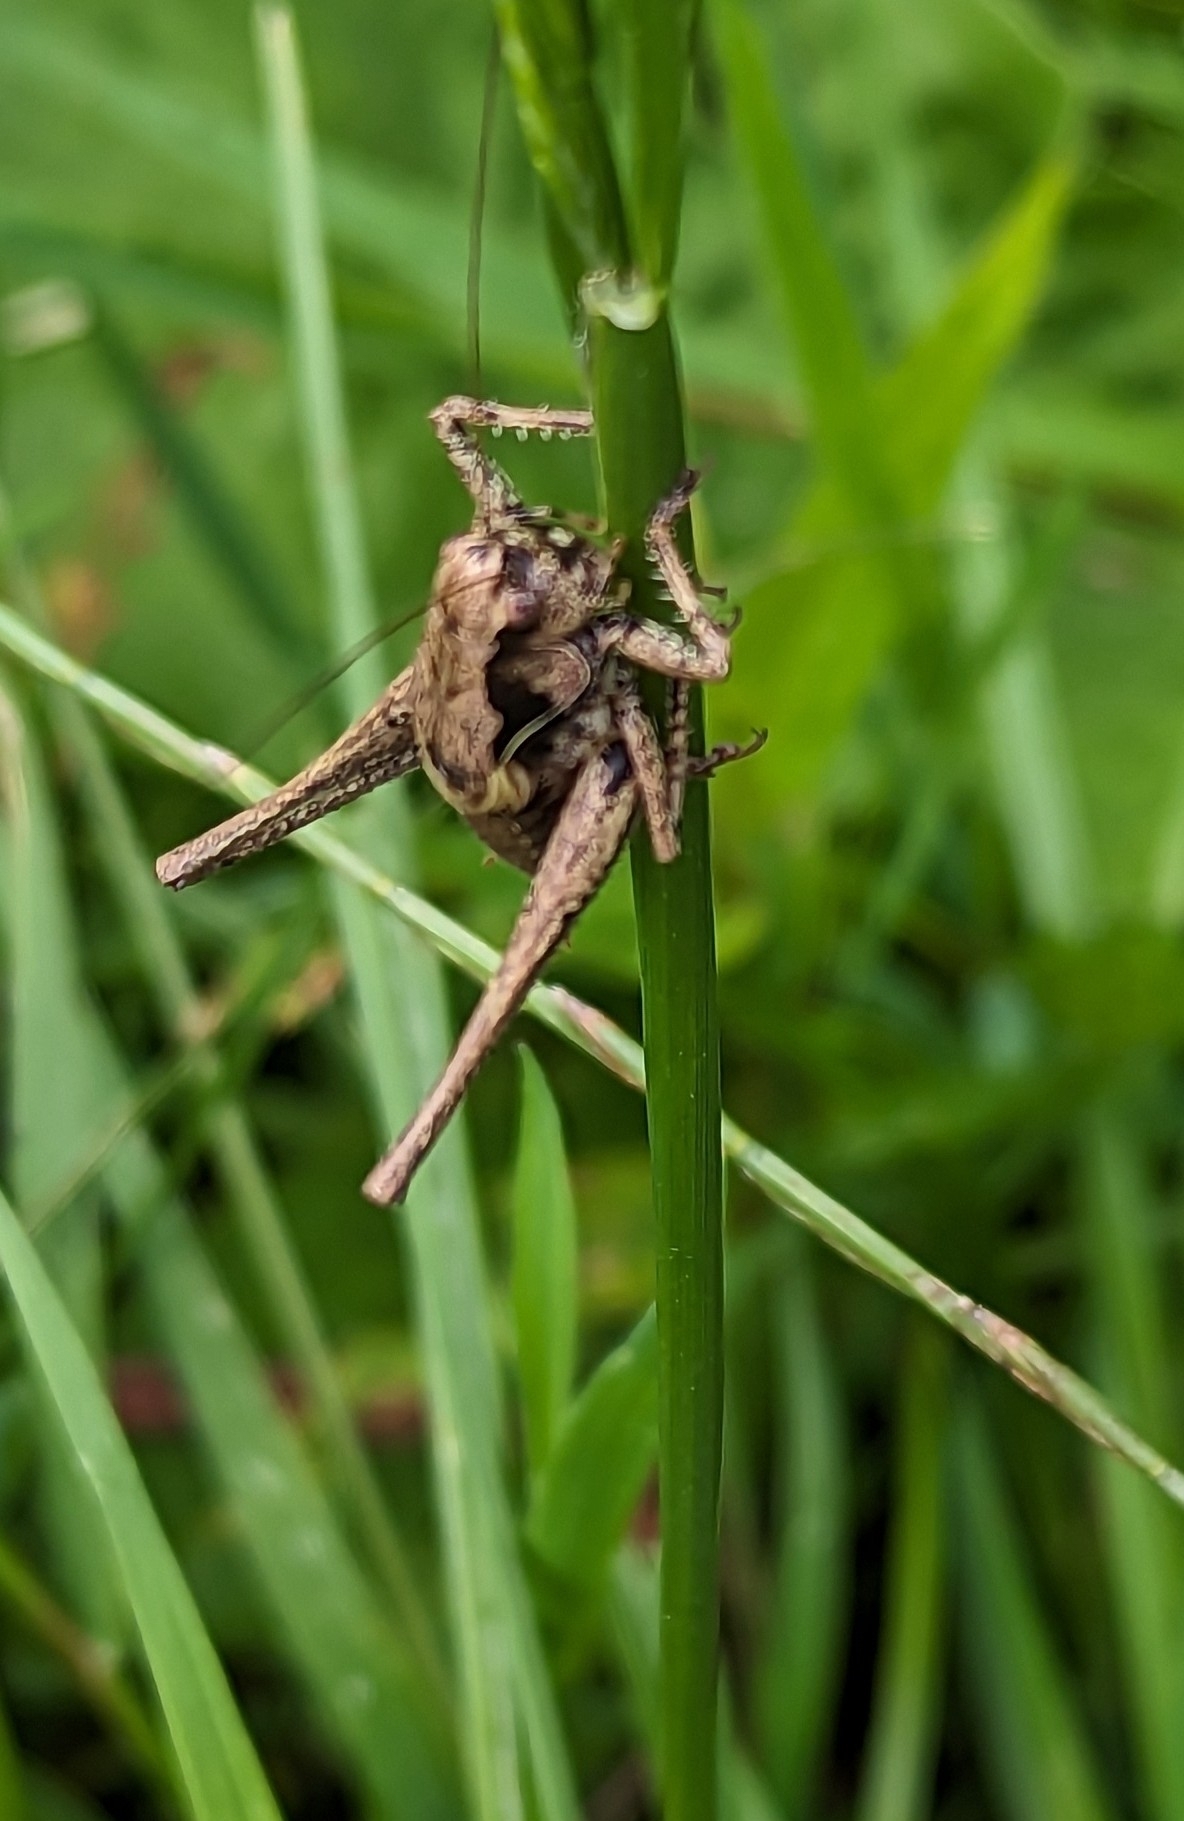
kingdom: Animalia
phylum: Arthropoda
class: Insecta
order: Orthoptera
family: Tettigoniidae
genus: Pholidoptera
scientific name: Pholidoptera griseoaptera
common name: Dark bush-cricket
